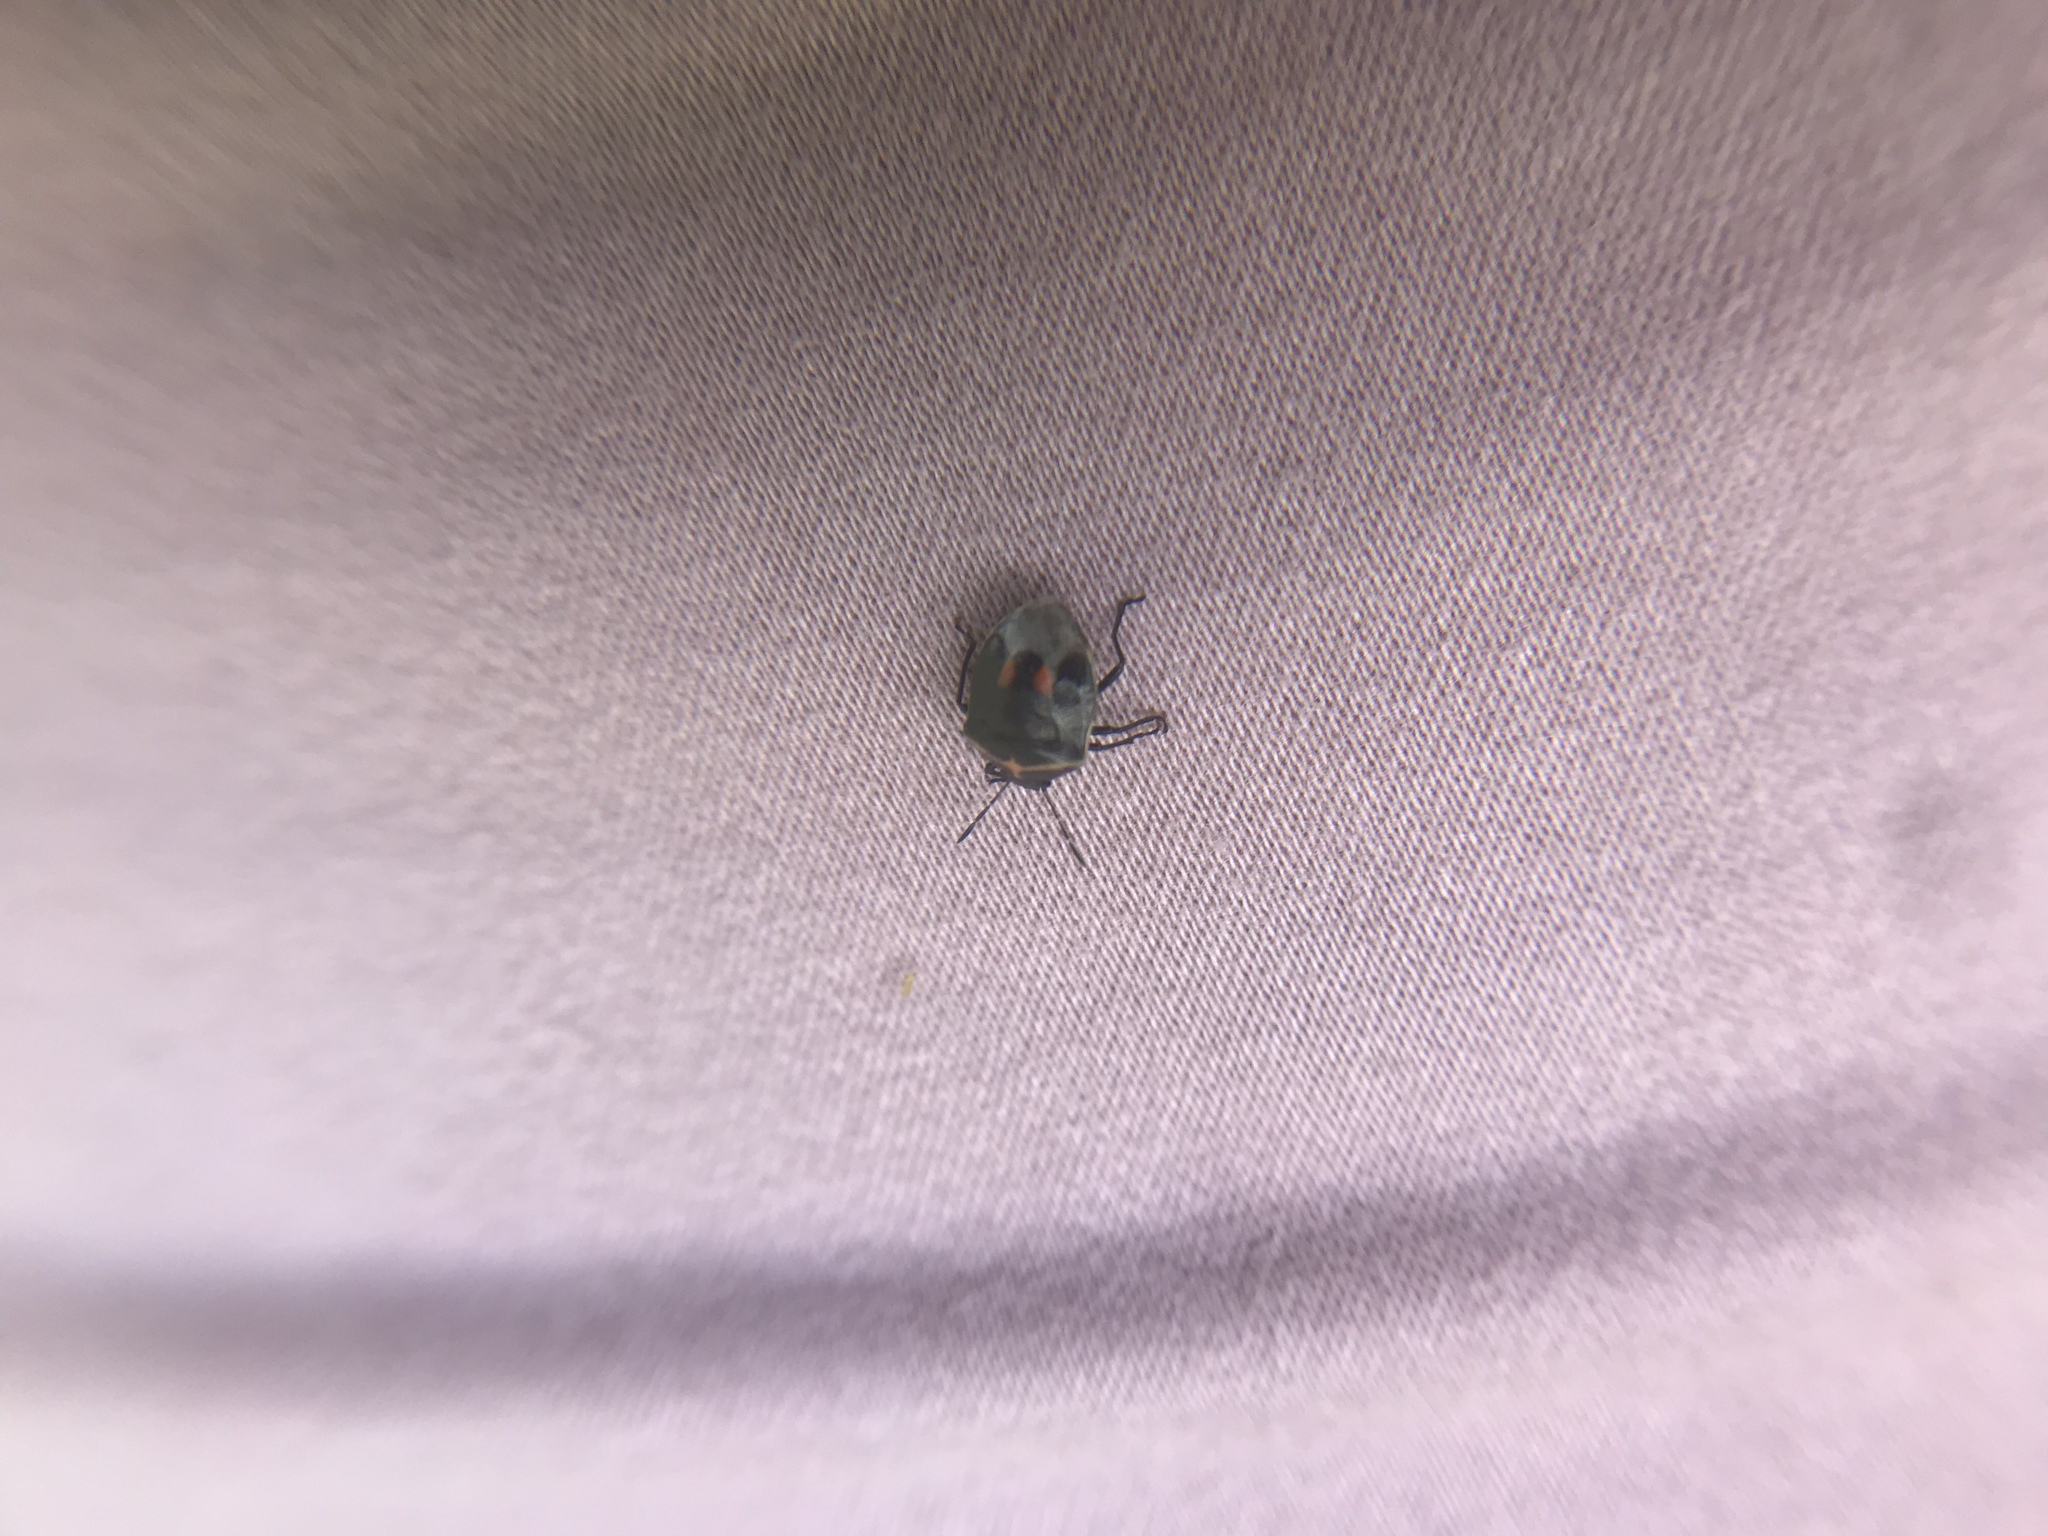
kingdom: Animalia
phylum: Arthropoda
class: Insecta
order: Hemiptera
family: Pentatomidae
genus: Cosmopepla
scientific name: Cosmopepla lintneriana
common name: Twice-stabbed stink bug
